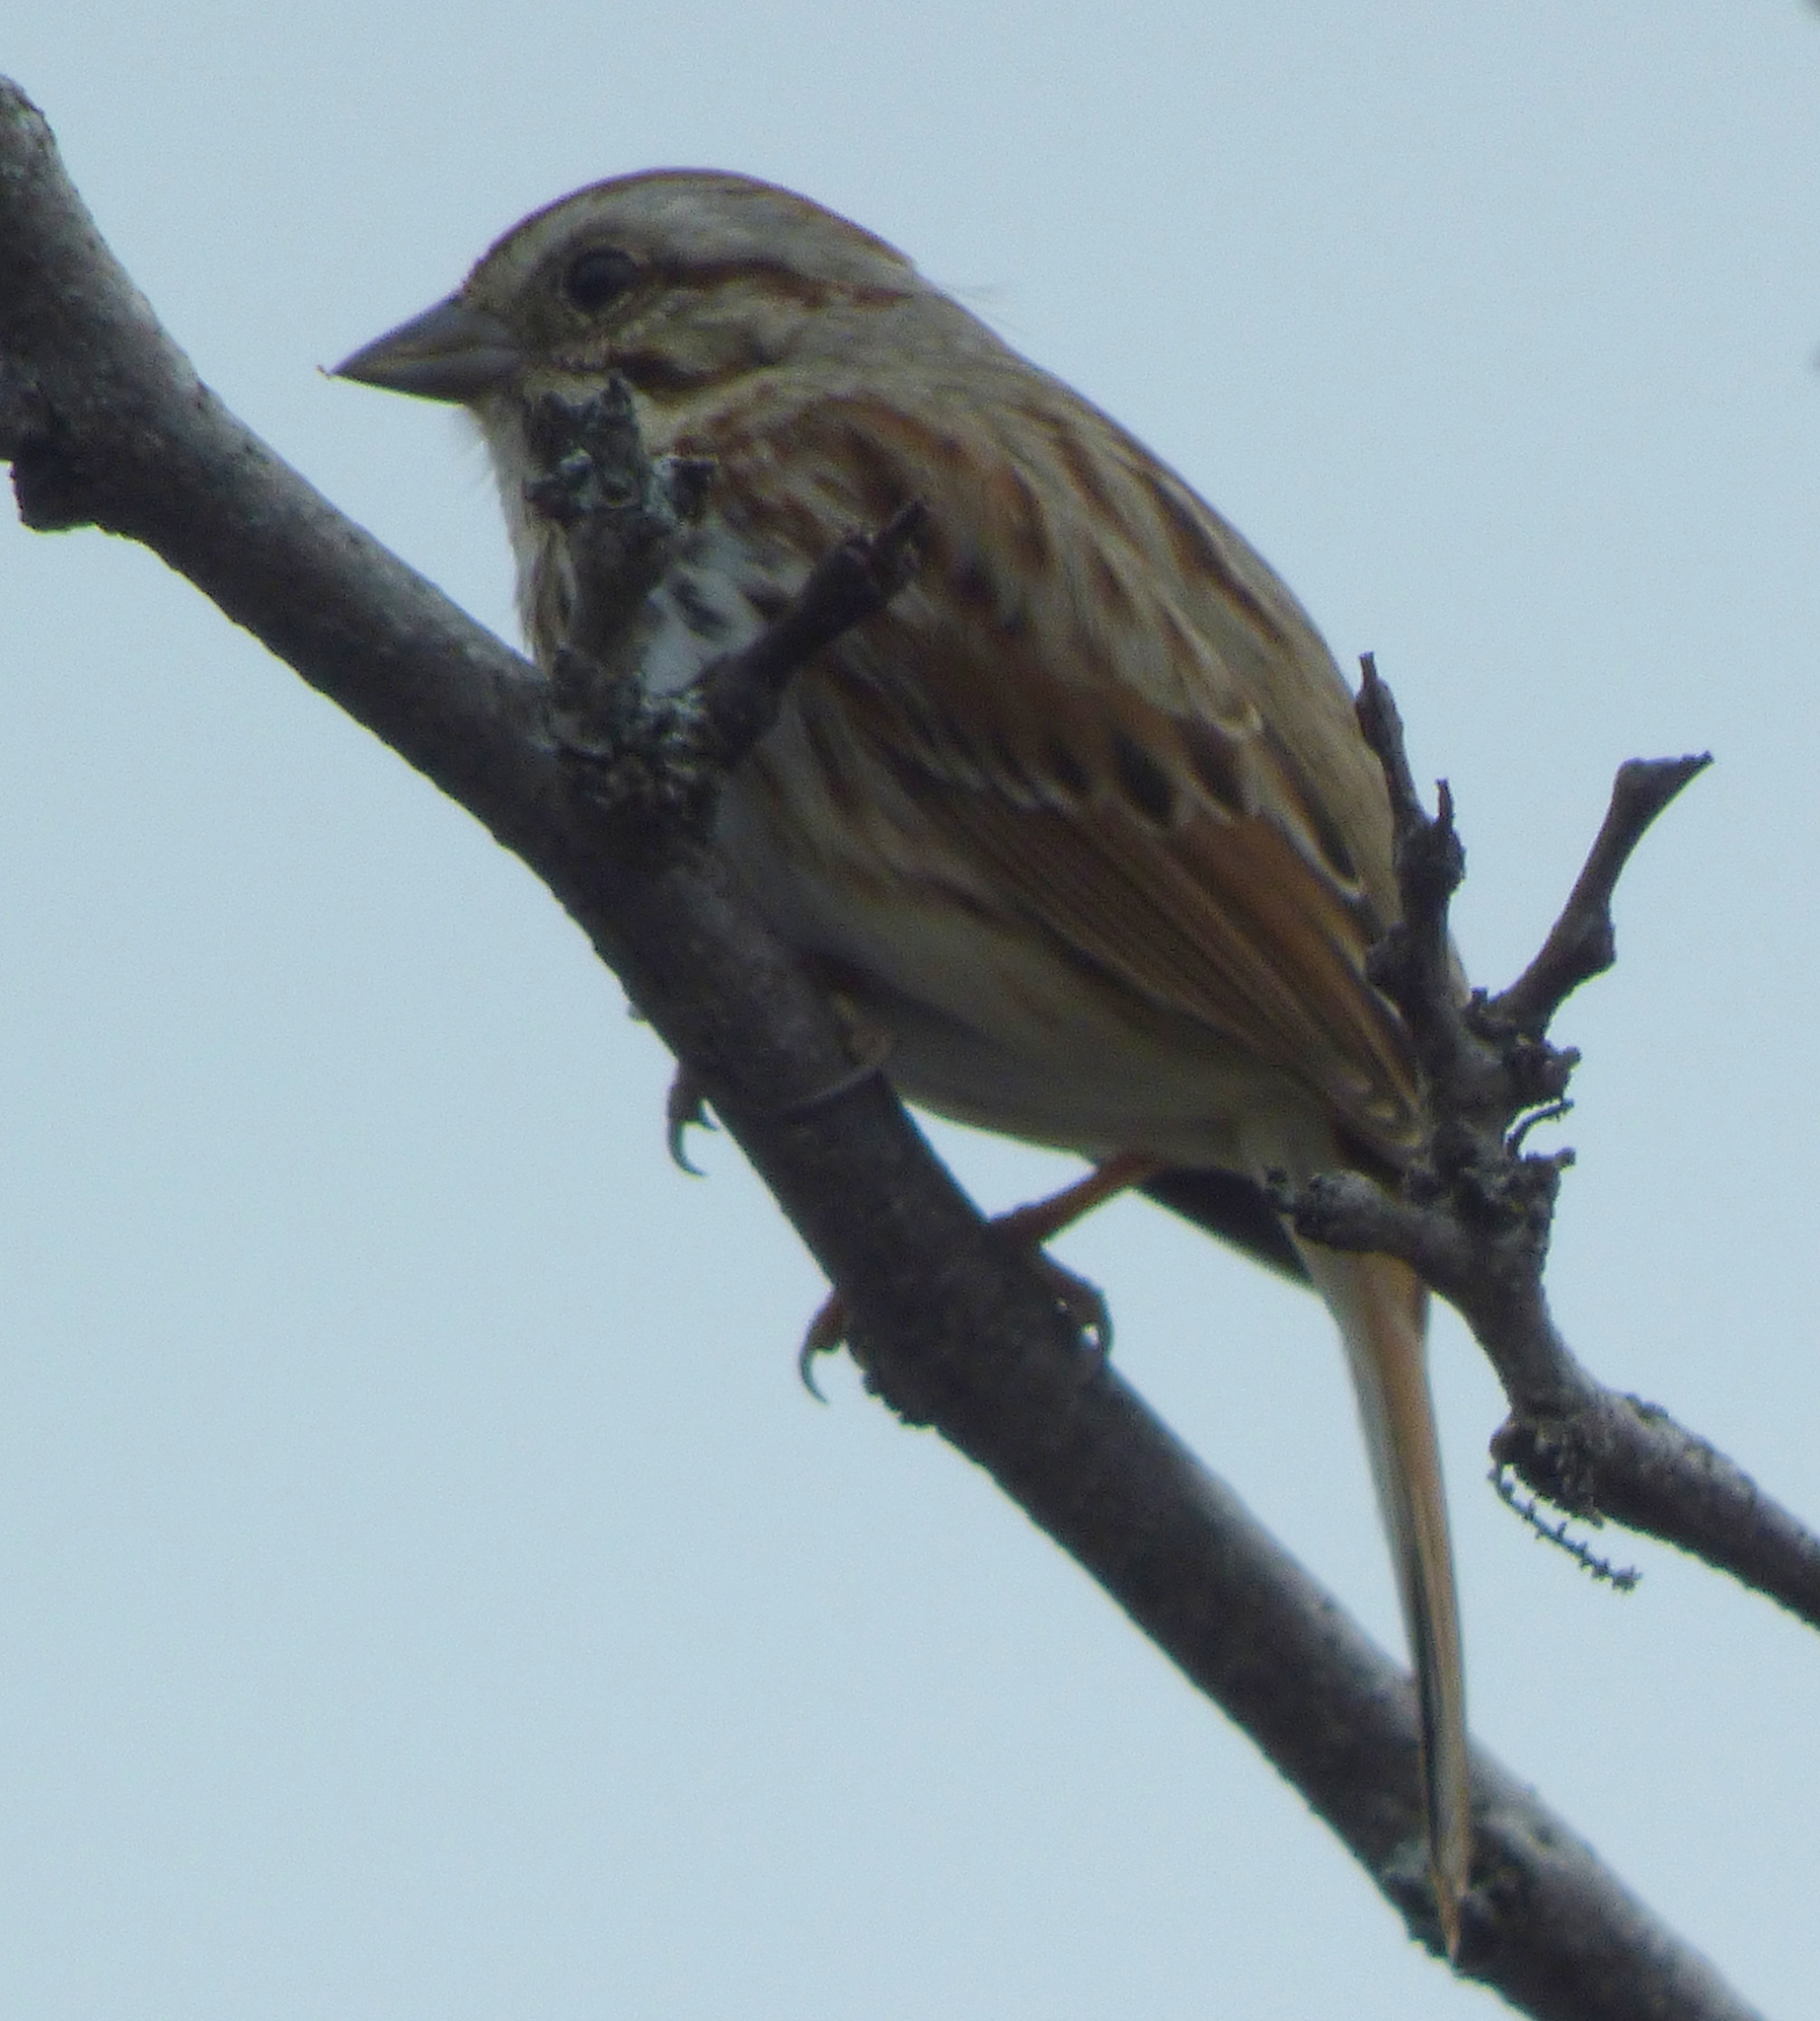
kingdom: Animalia
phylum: Chordata
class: Aves
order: Passeriformes
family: Passerellidae
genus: Melospiza
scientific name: Melospiza melodia
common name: Song sparrow
